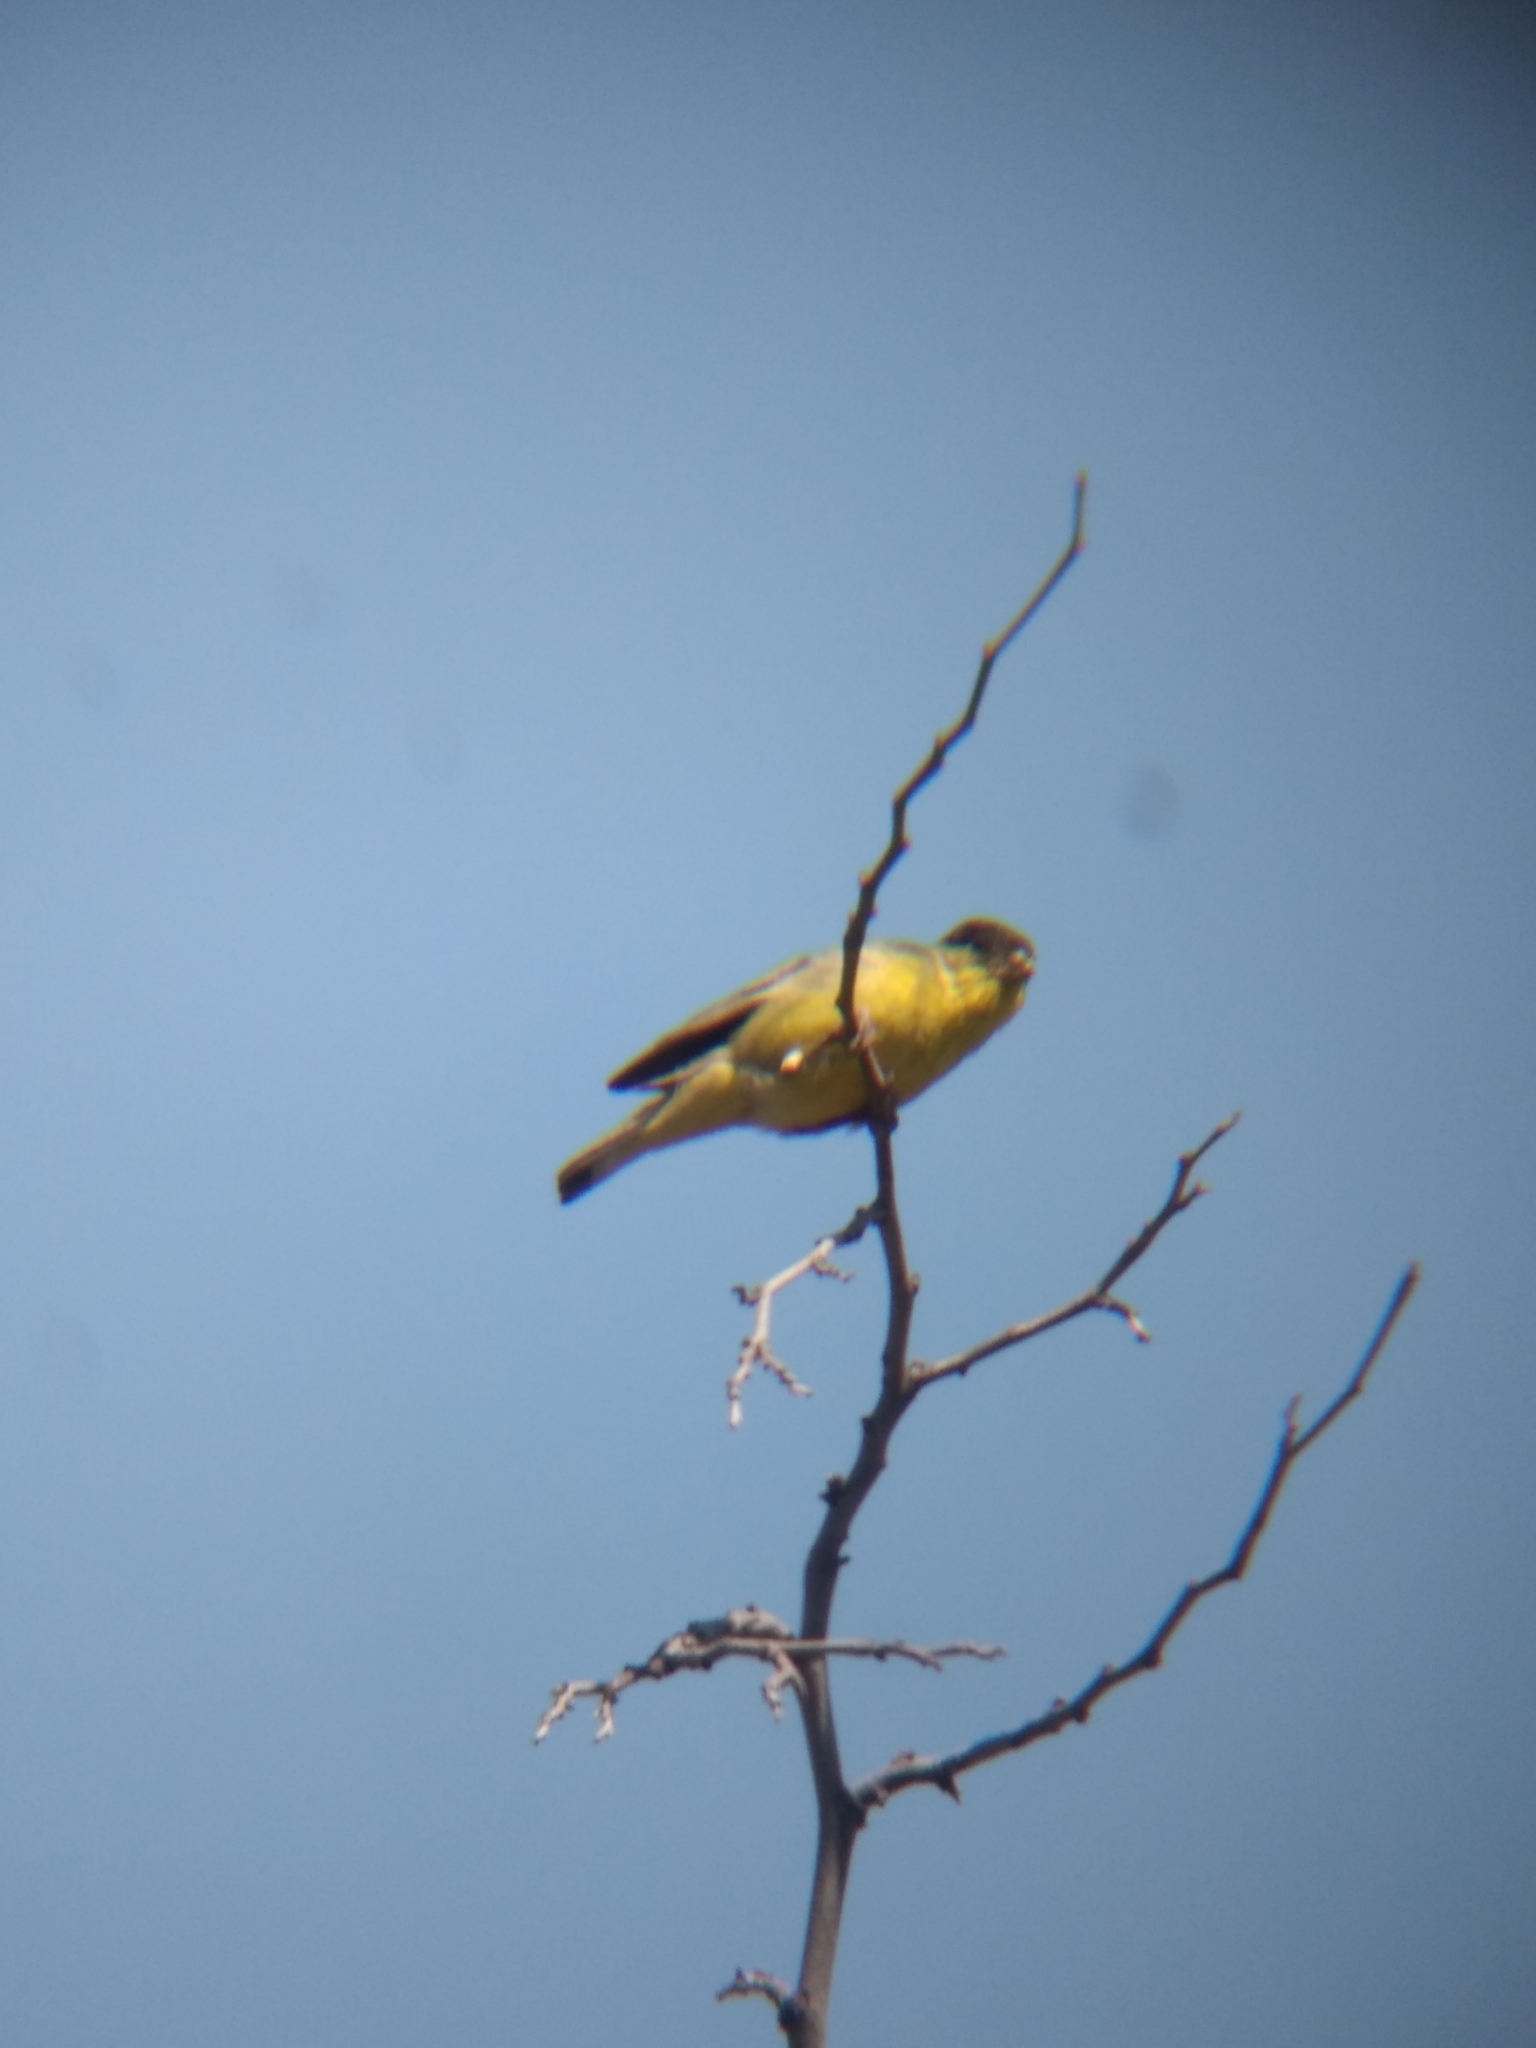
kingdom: Animalia
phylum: Chordata
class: Aves
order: Passeriformes
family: Fringillidae
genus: Spinus
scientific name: Spinus psaltria
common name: Lesser goldfinch
